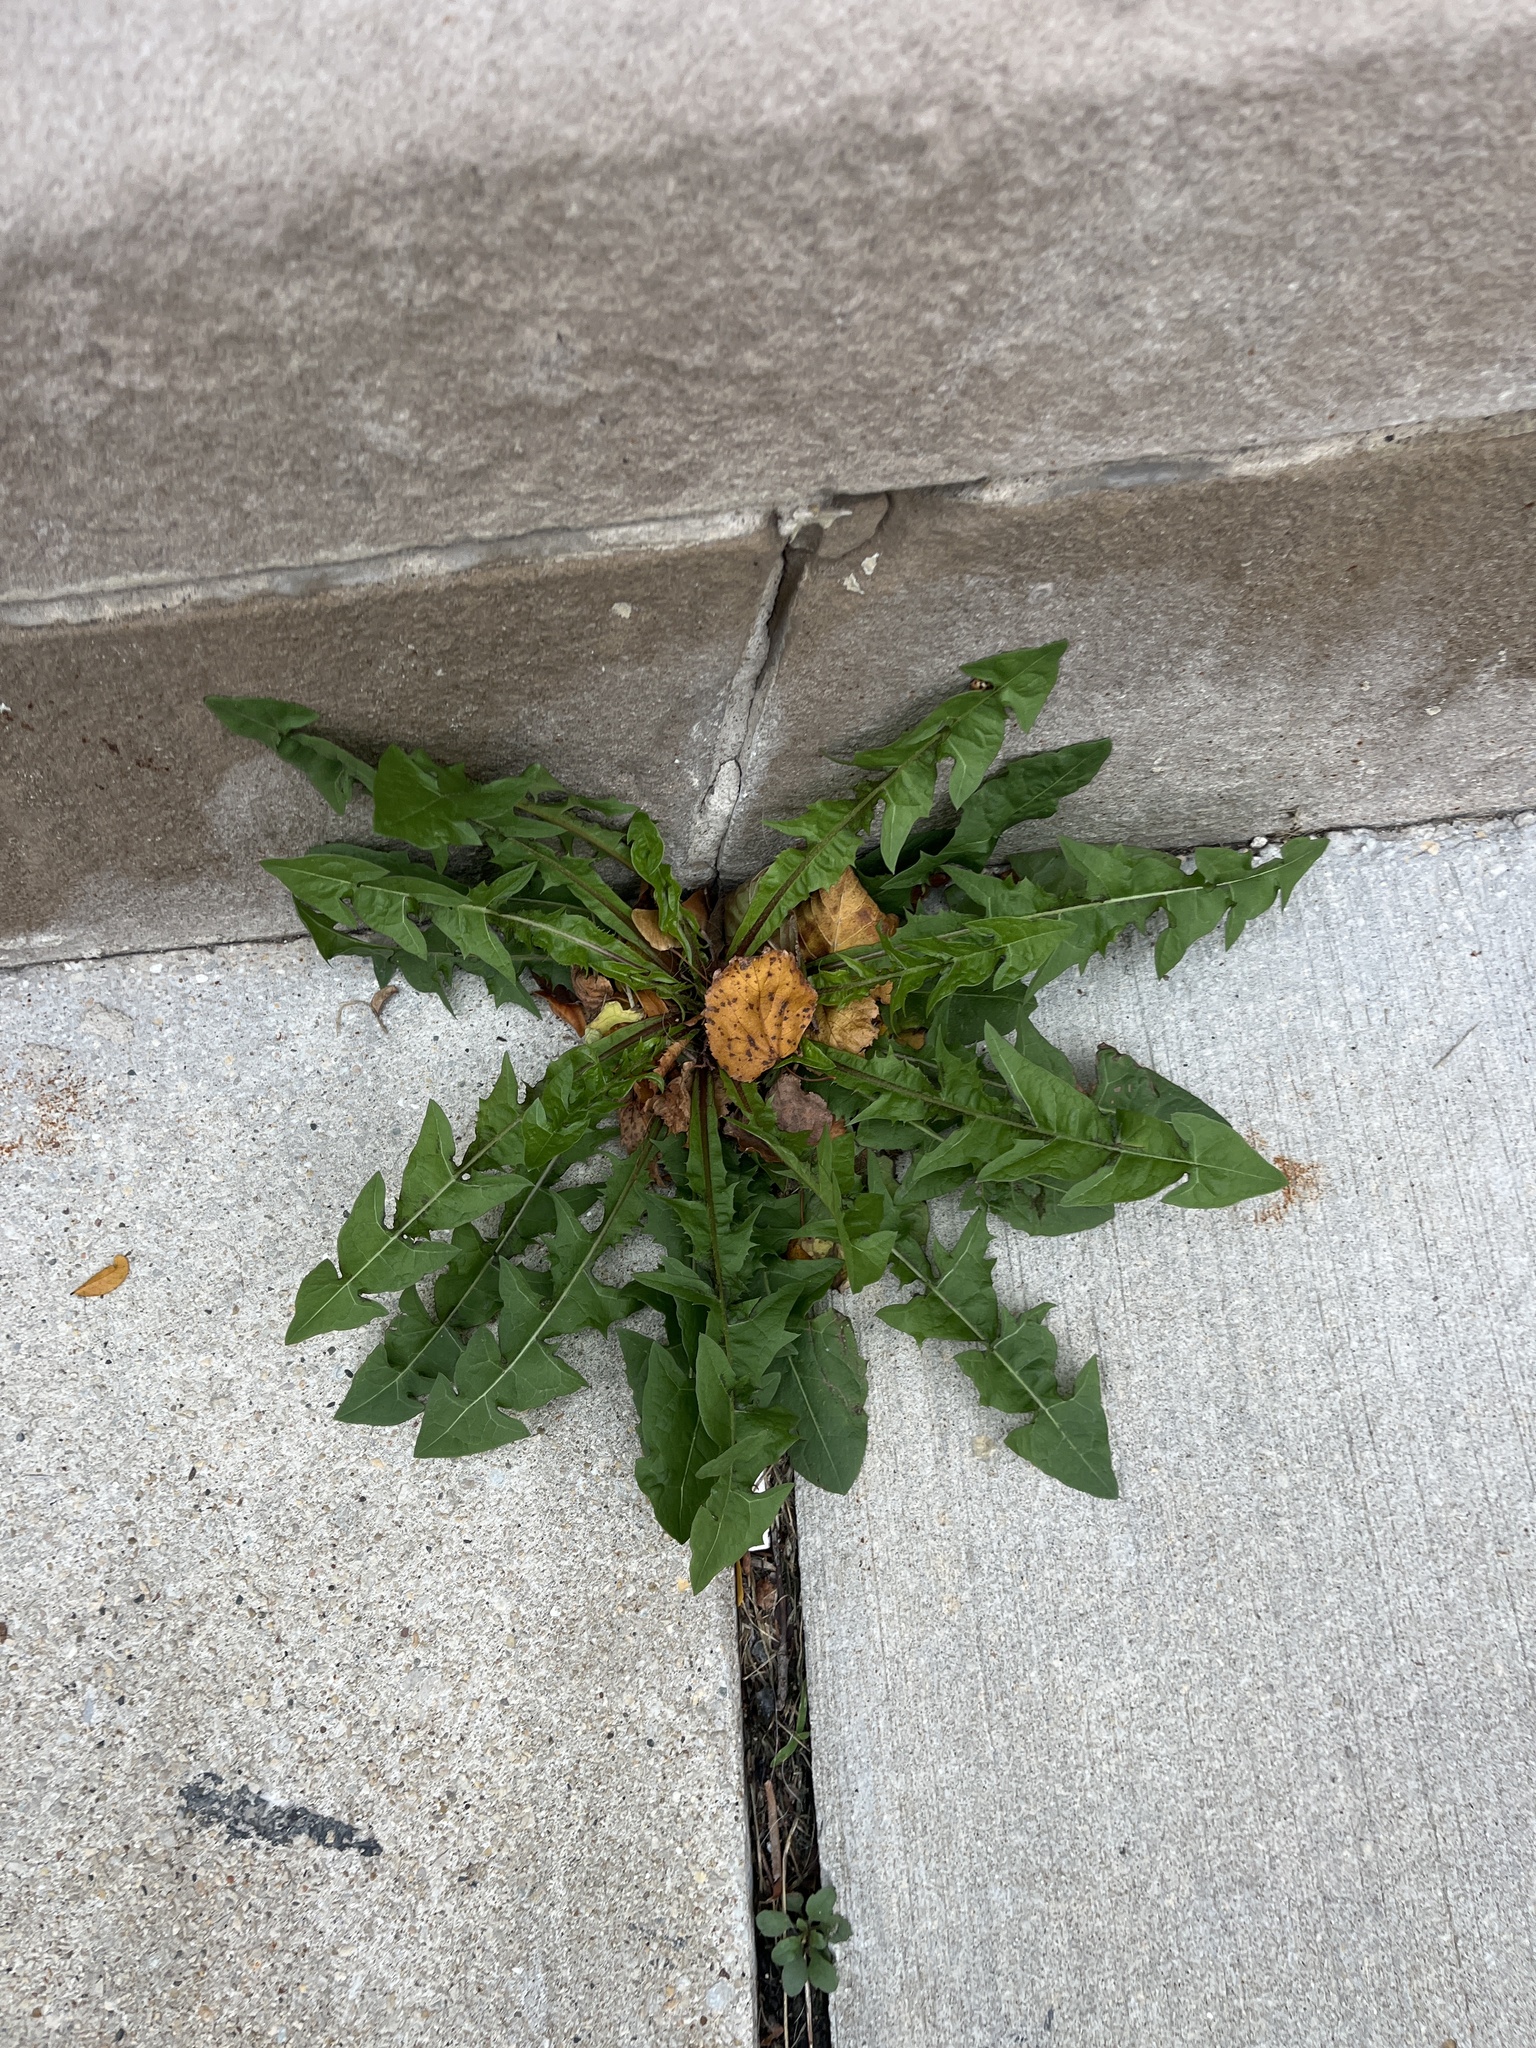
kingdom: Plantae
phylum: Tracheophyta
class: Magnoliopsida
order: Asterales
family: Asteraceae
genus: Taraxacum
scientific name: Taraxacum officinale
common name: Common dandelion
